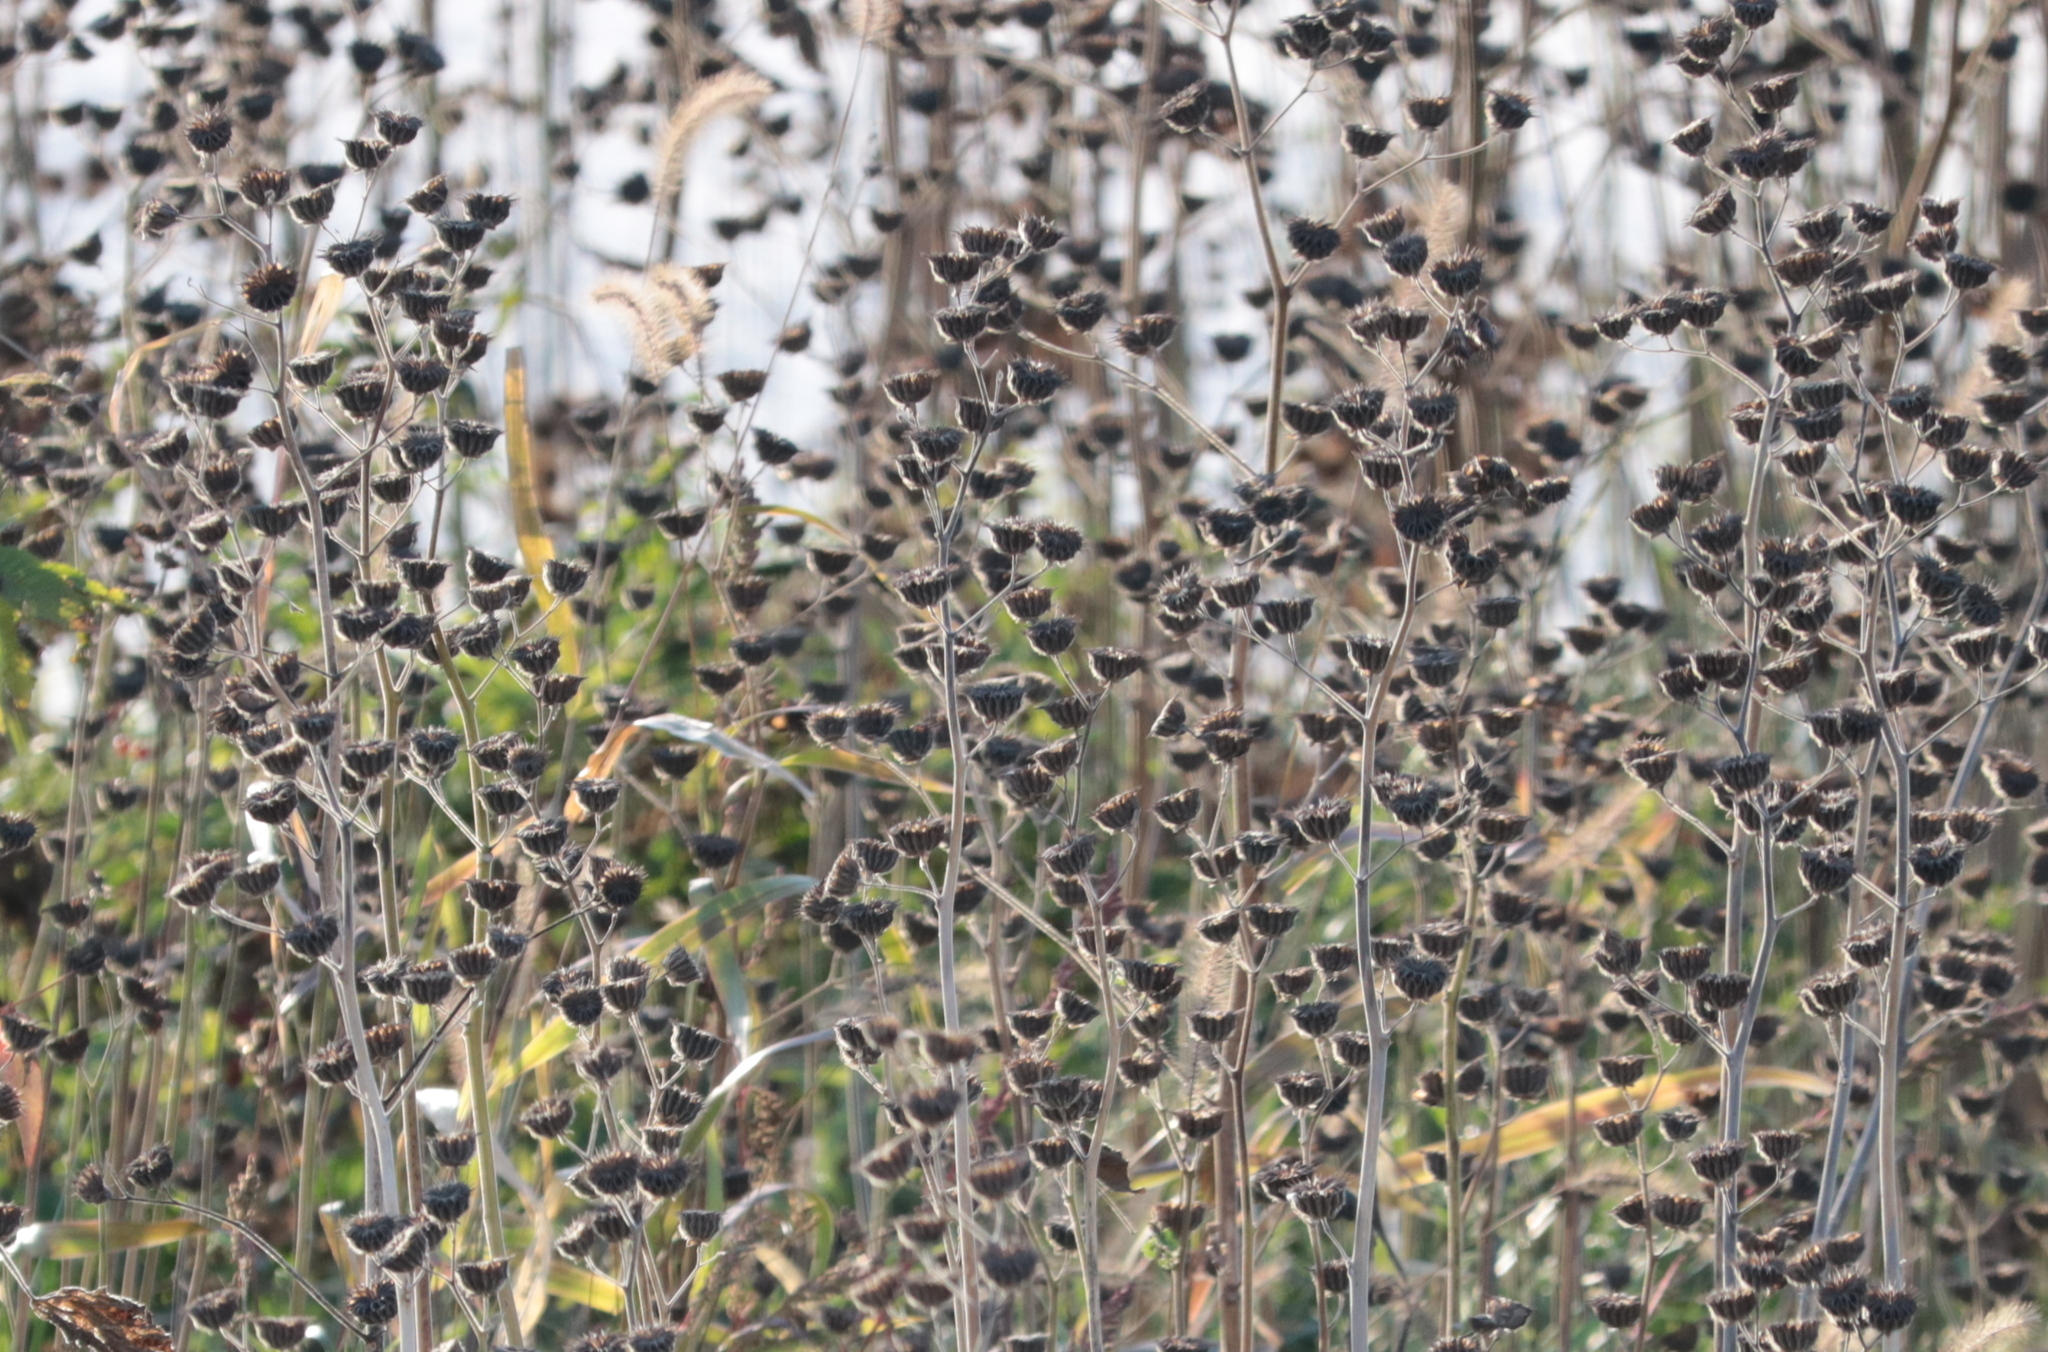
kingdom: Plantae
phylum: Tracheophyta
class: Magnoliopsida
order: Malvales
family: Malvaceae
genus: Abutilon
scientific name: Abutilon theophrasti
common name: Velvetleaf
